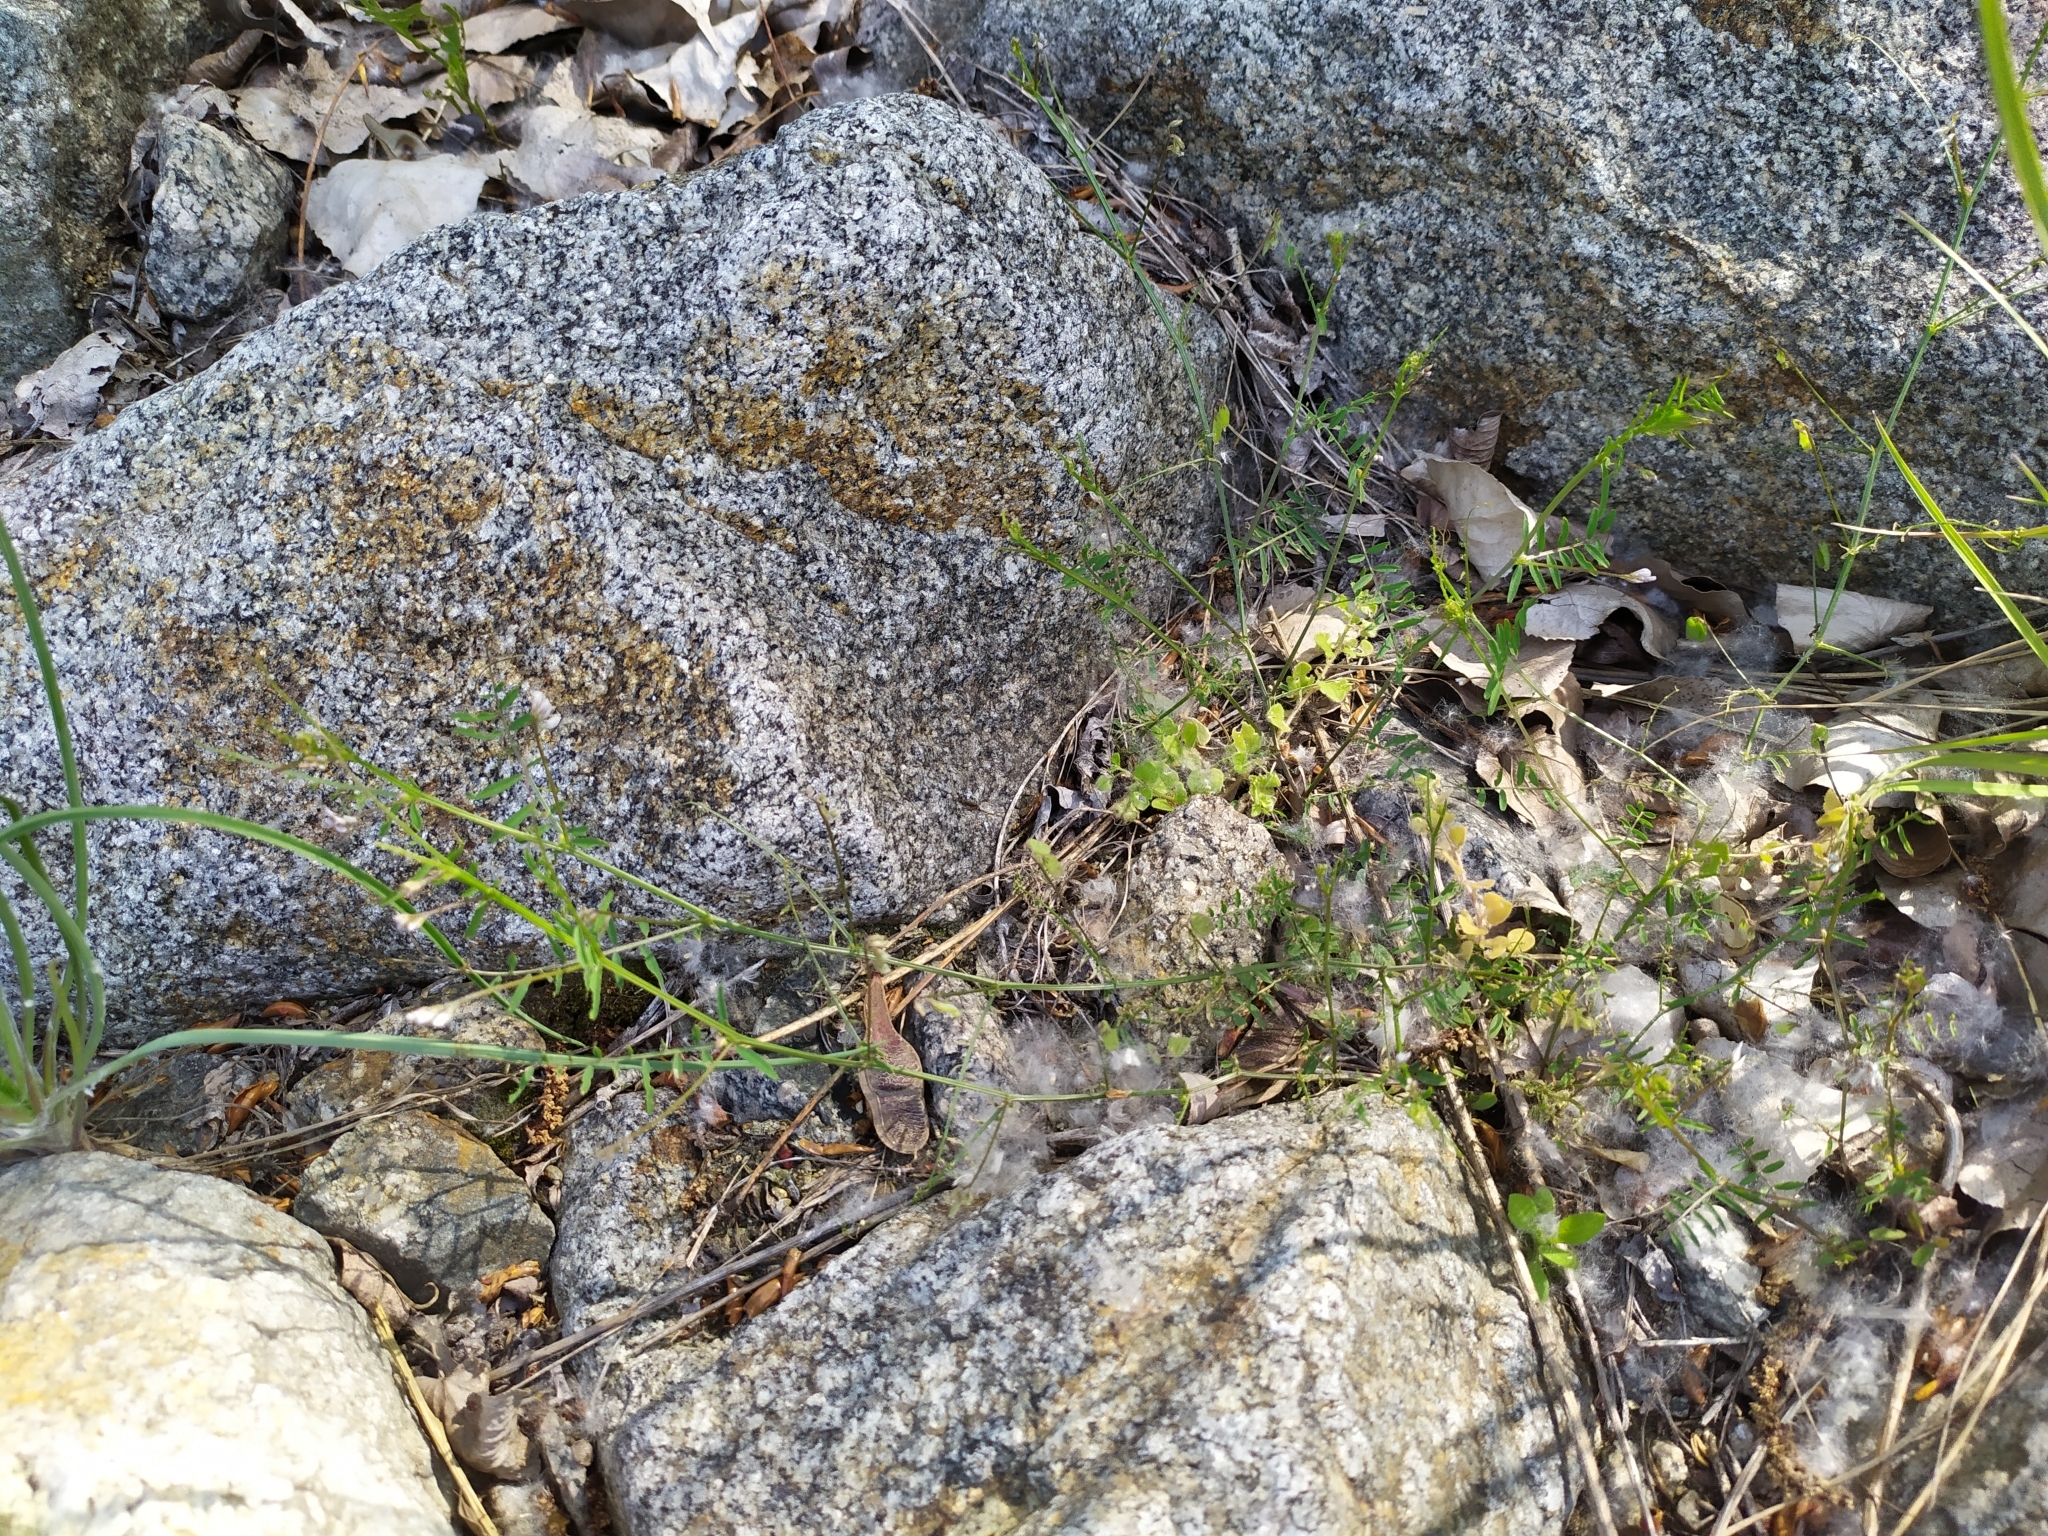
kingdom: Plantae
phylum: Tracheophyta
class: Magnoliopsida
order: Fabales
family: Fabaceae
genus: Vicia
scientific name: Vicia hirsuta
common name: Tiny vetch
